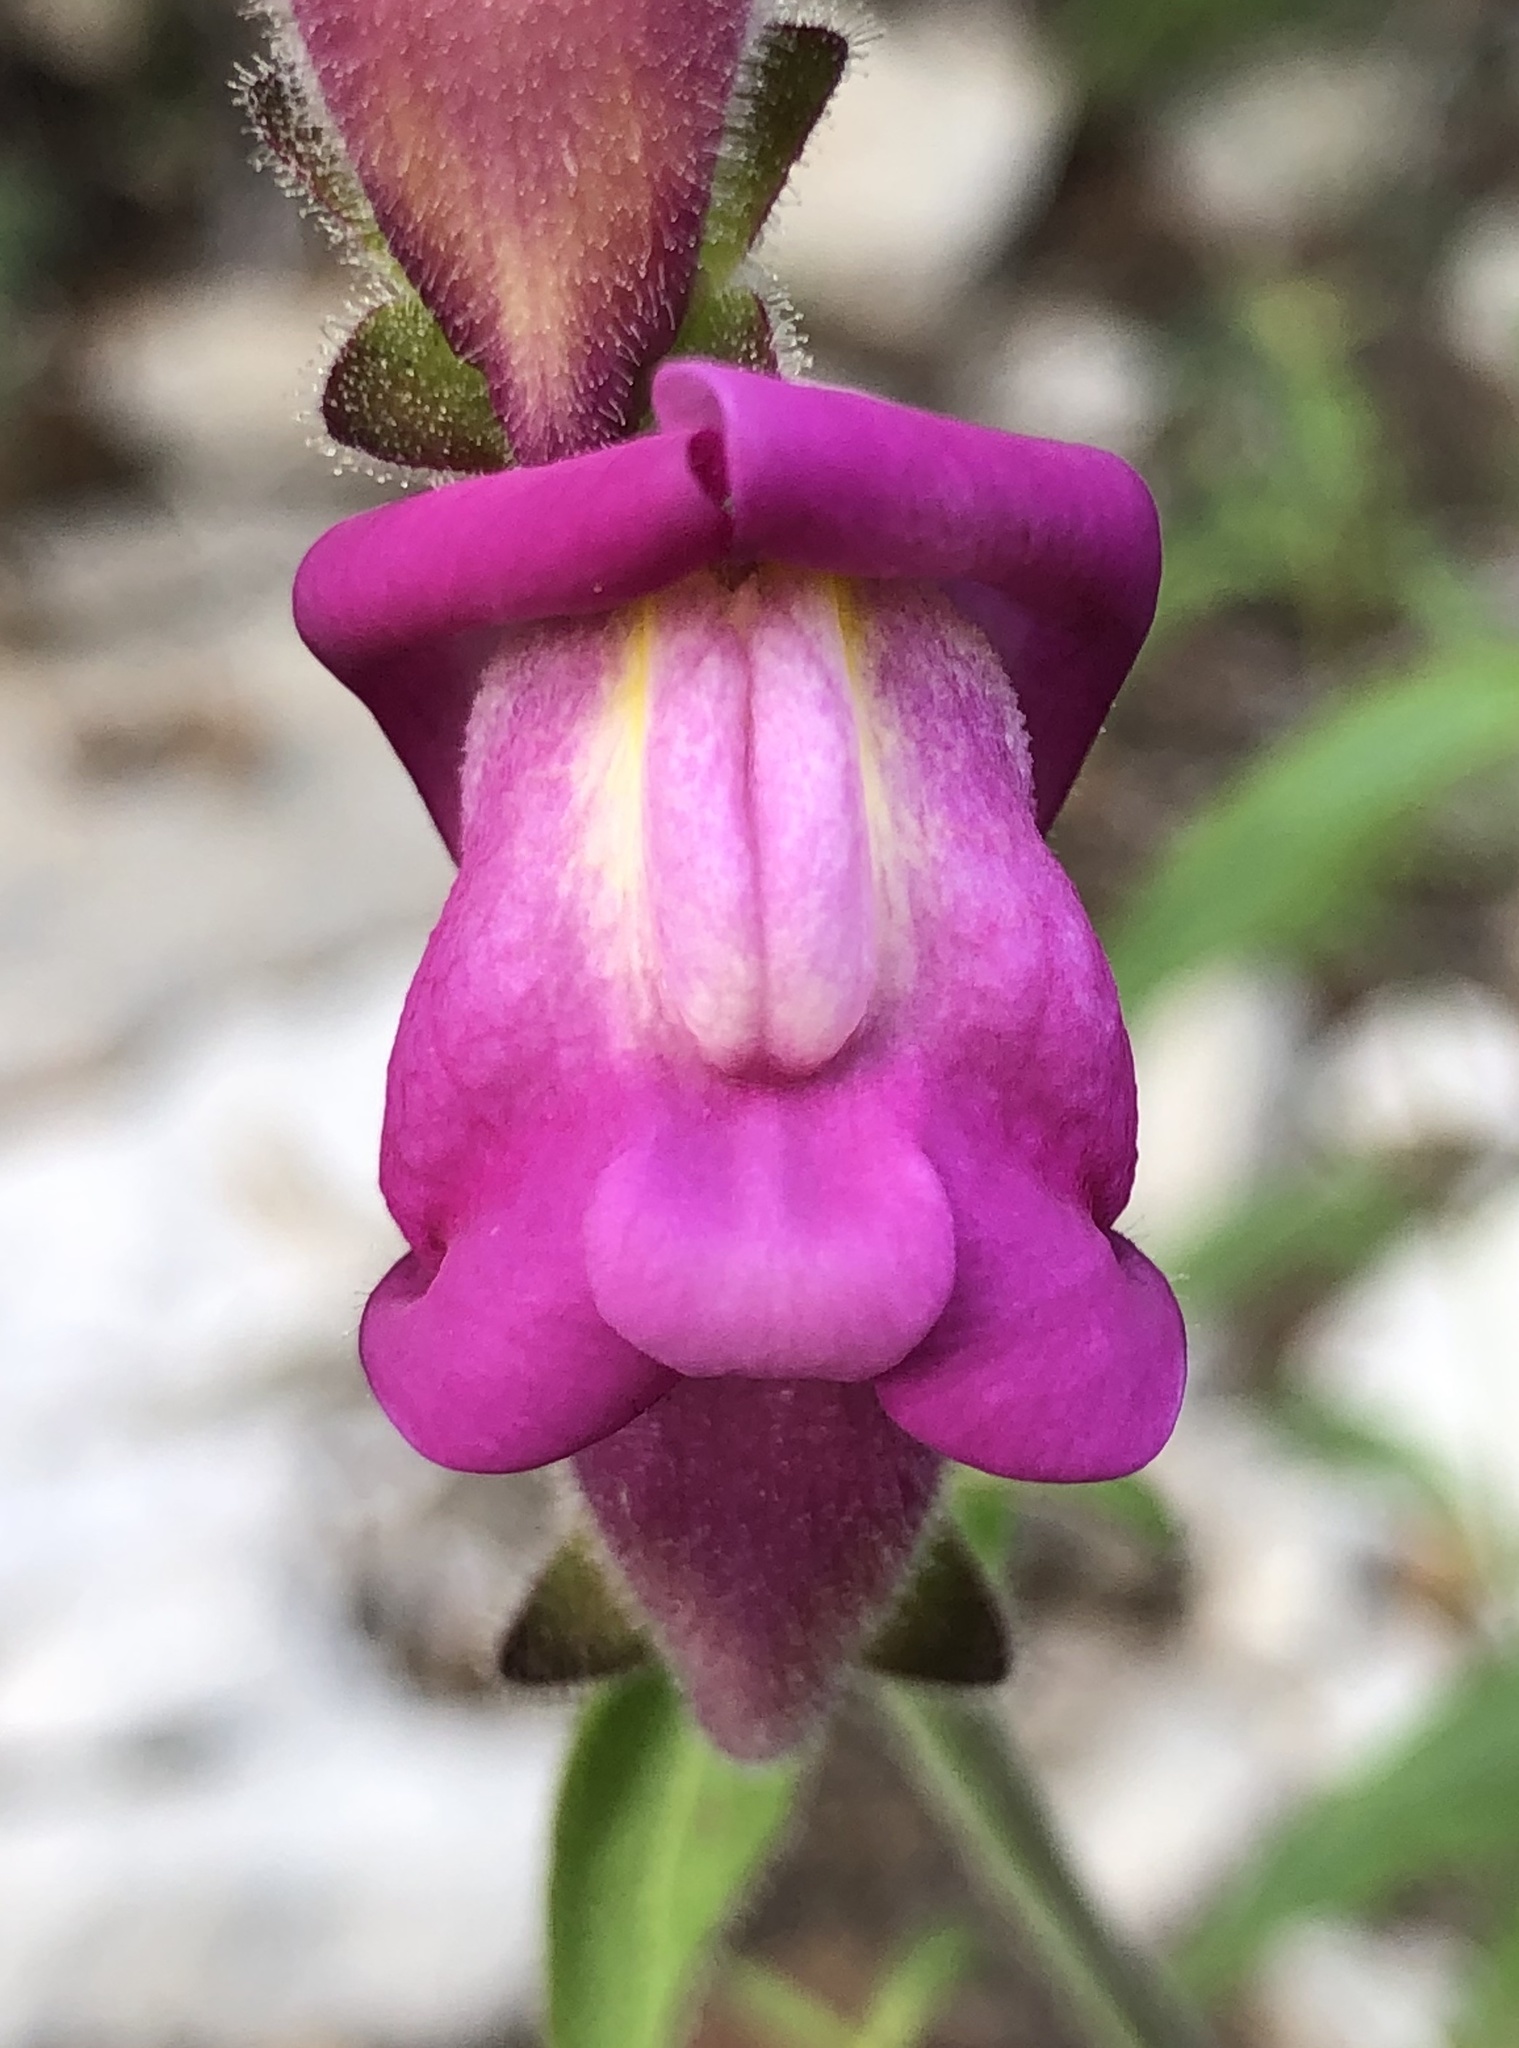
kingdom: Plantae
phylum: Tracheophyta
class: Magnoliopsida
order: Lamiales
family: Plantaginaceae
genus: Antirrhinum
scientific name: Antirrhinum majus
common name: Snapdragon
